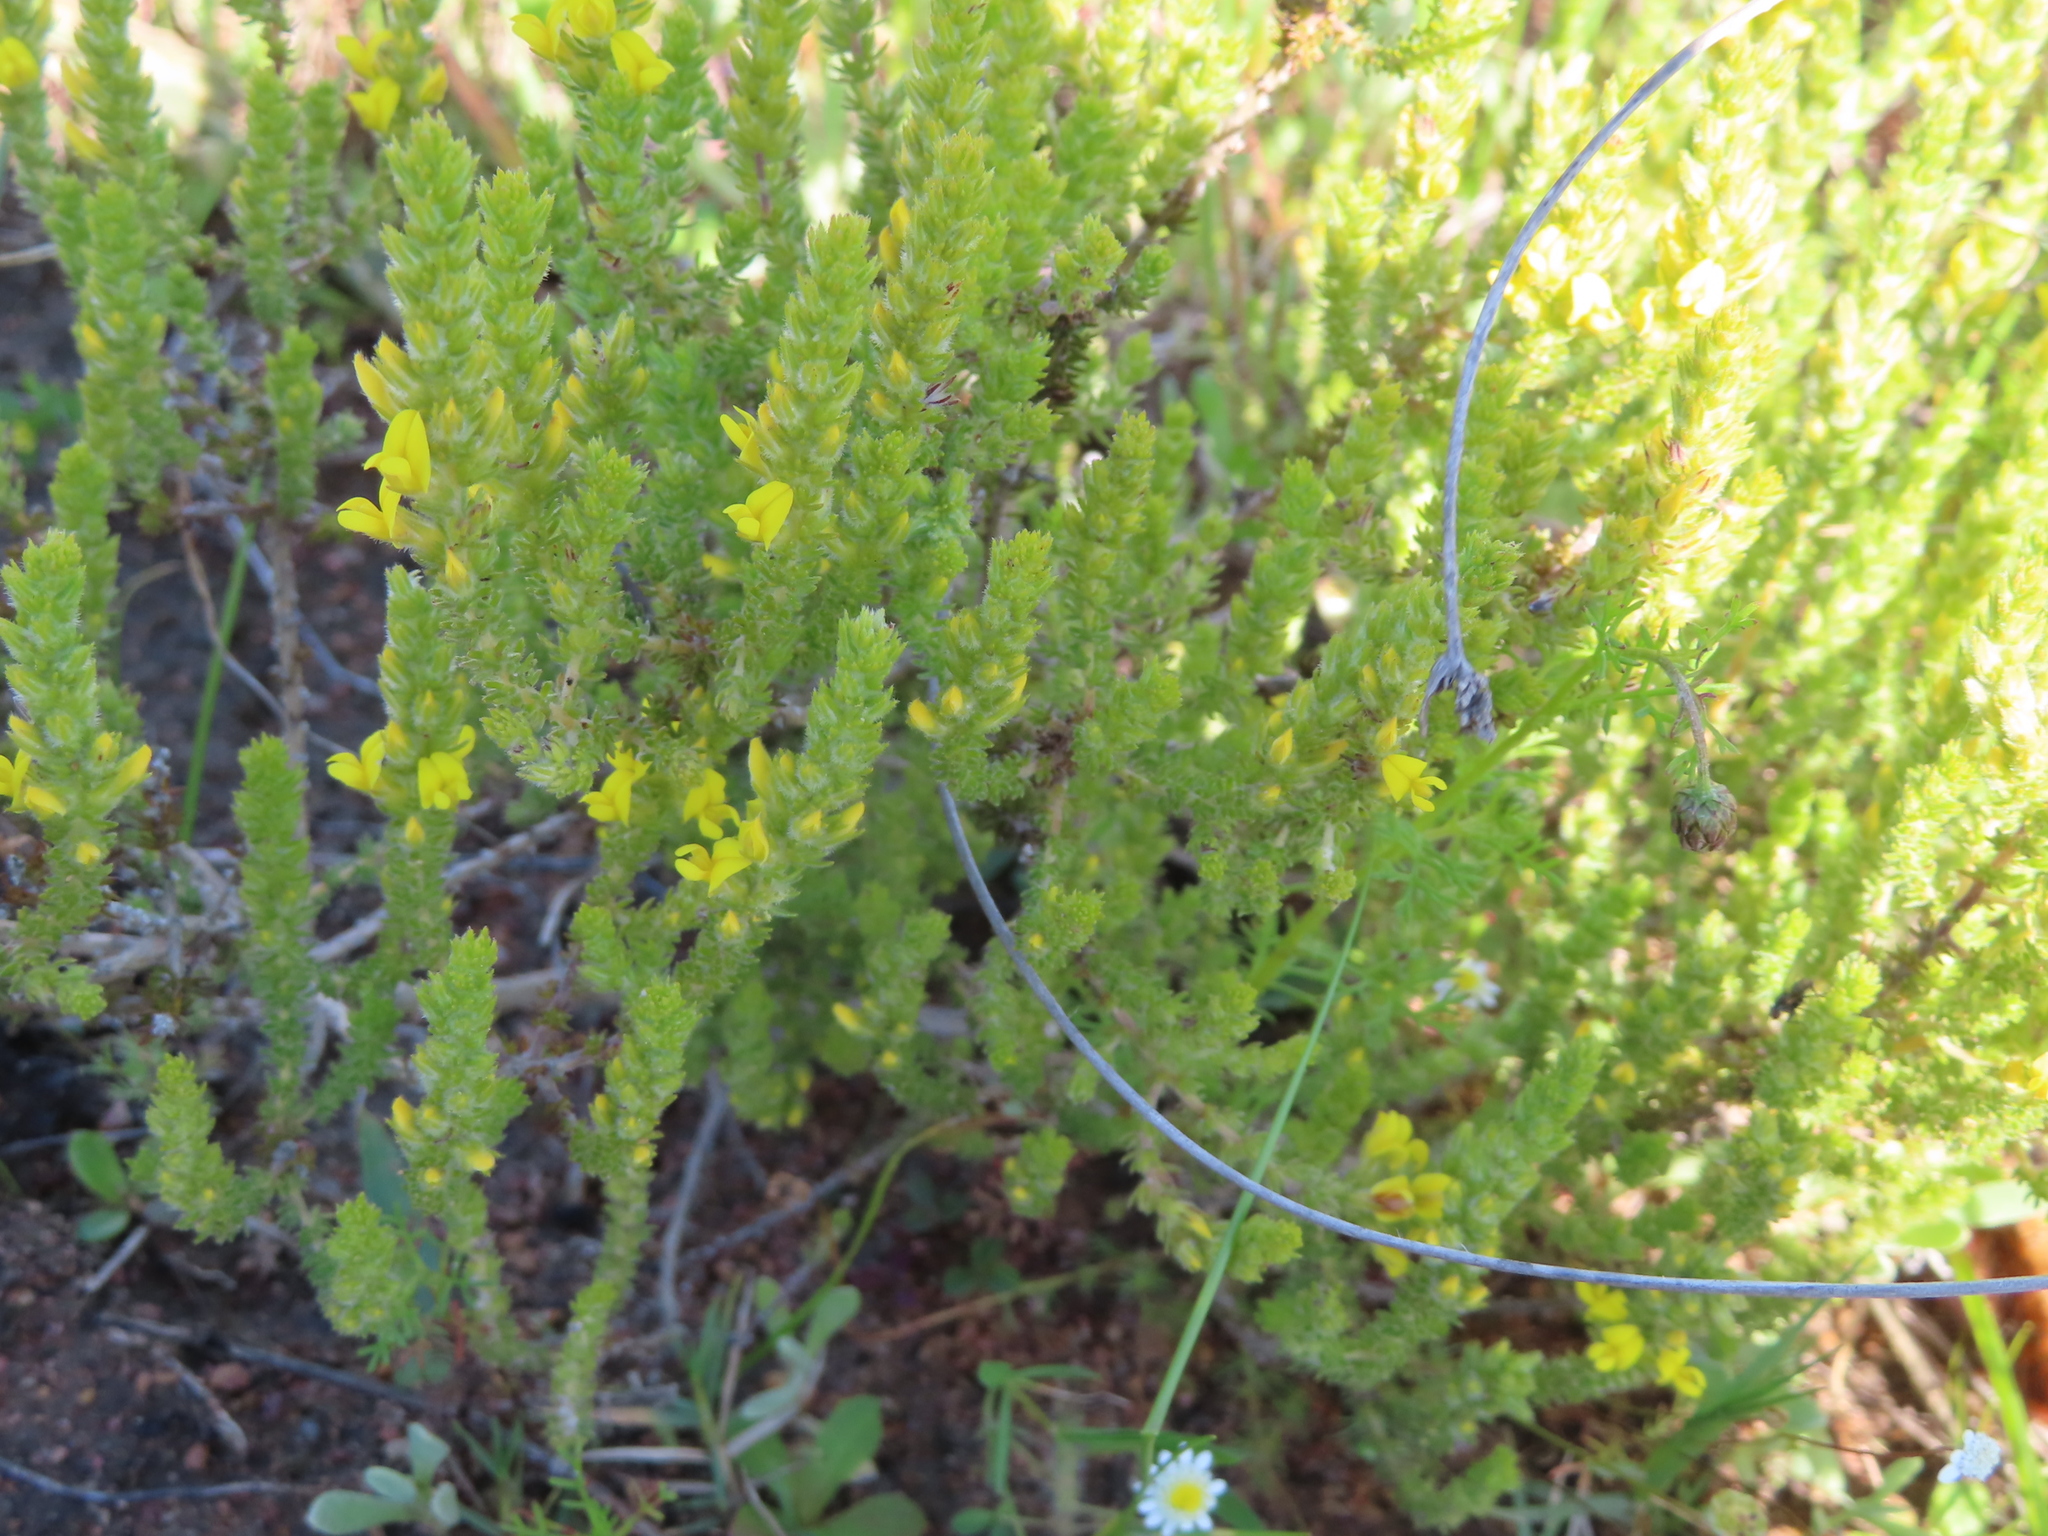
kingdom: Plantae
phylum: Tracheophyta
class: Magnoliopsida
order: Fabales
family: Fabaceae
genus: Aspalathus
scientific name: Aspalathus ericifolia
